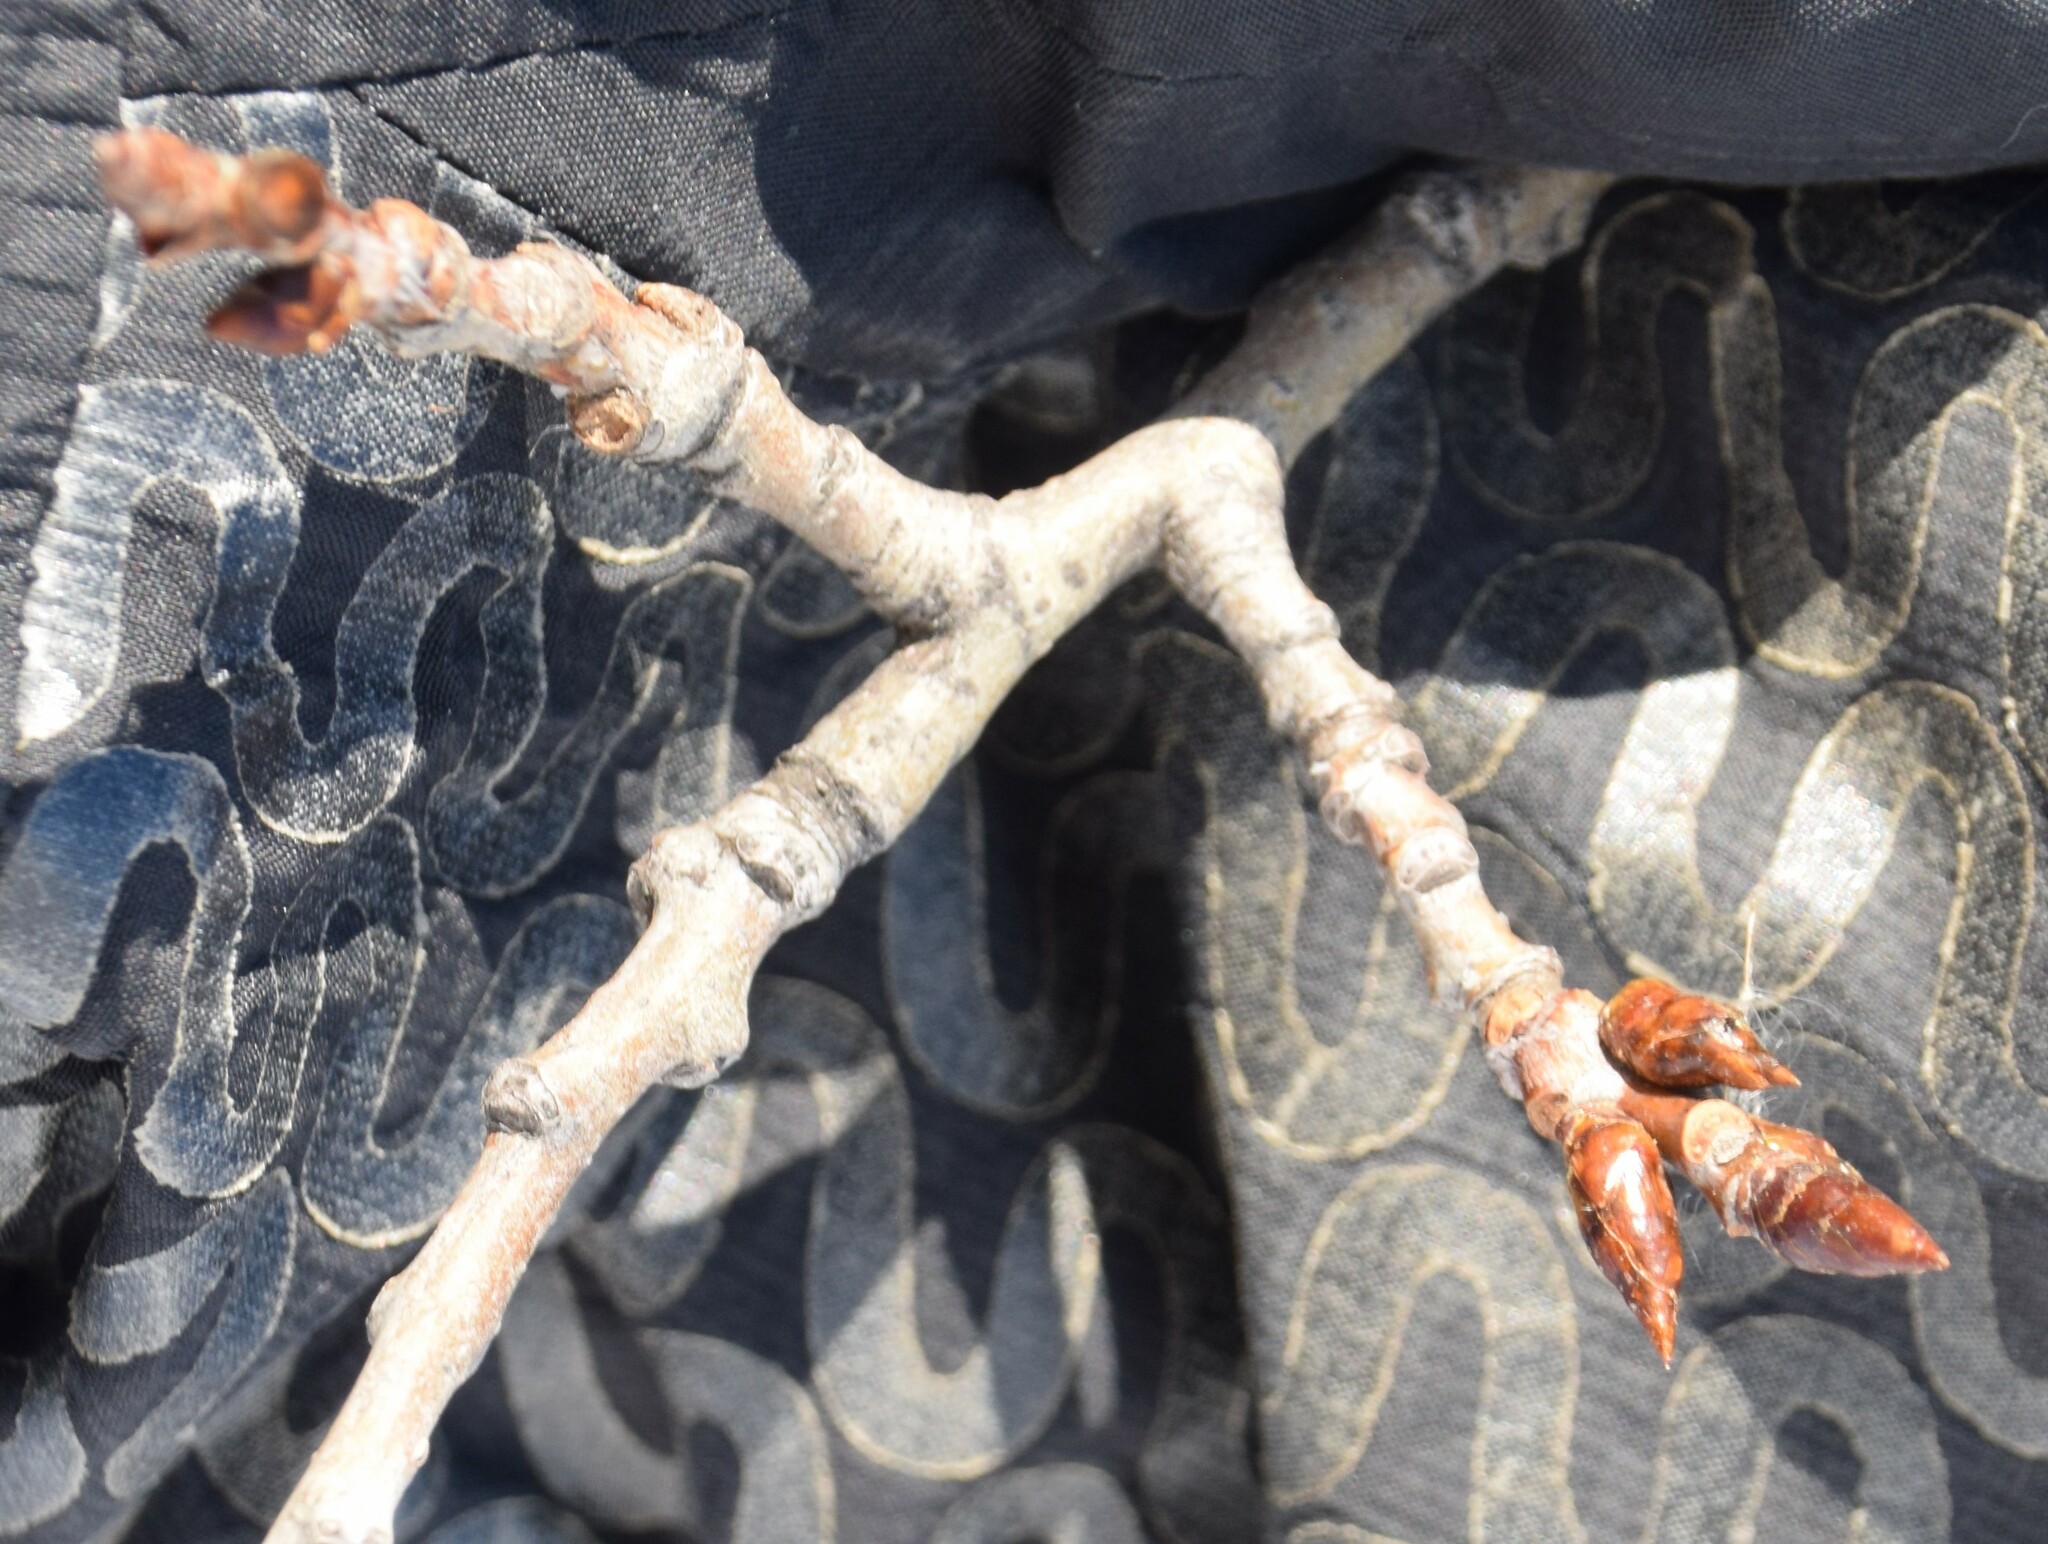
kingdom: Plantae
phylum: Tracheophyta
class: Magnoliopsida
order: Malpighiales
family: Salicaceae
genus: Populus
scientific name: Populus tremuloides
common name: Quaking aspen
